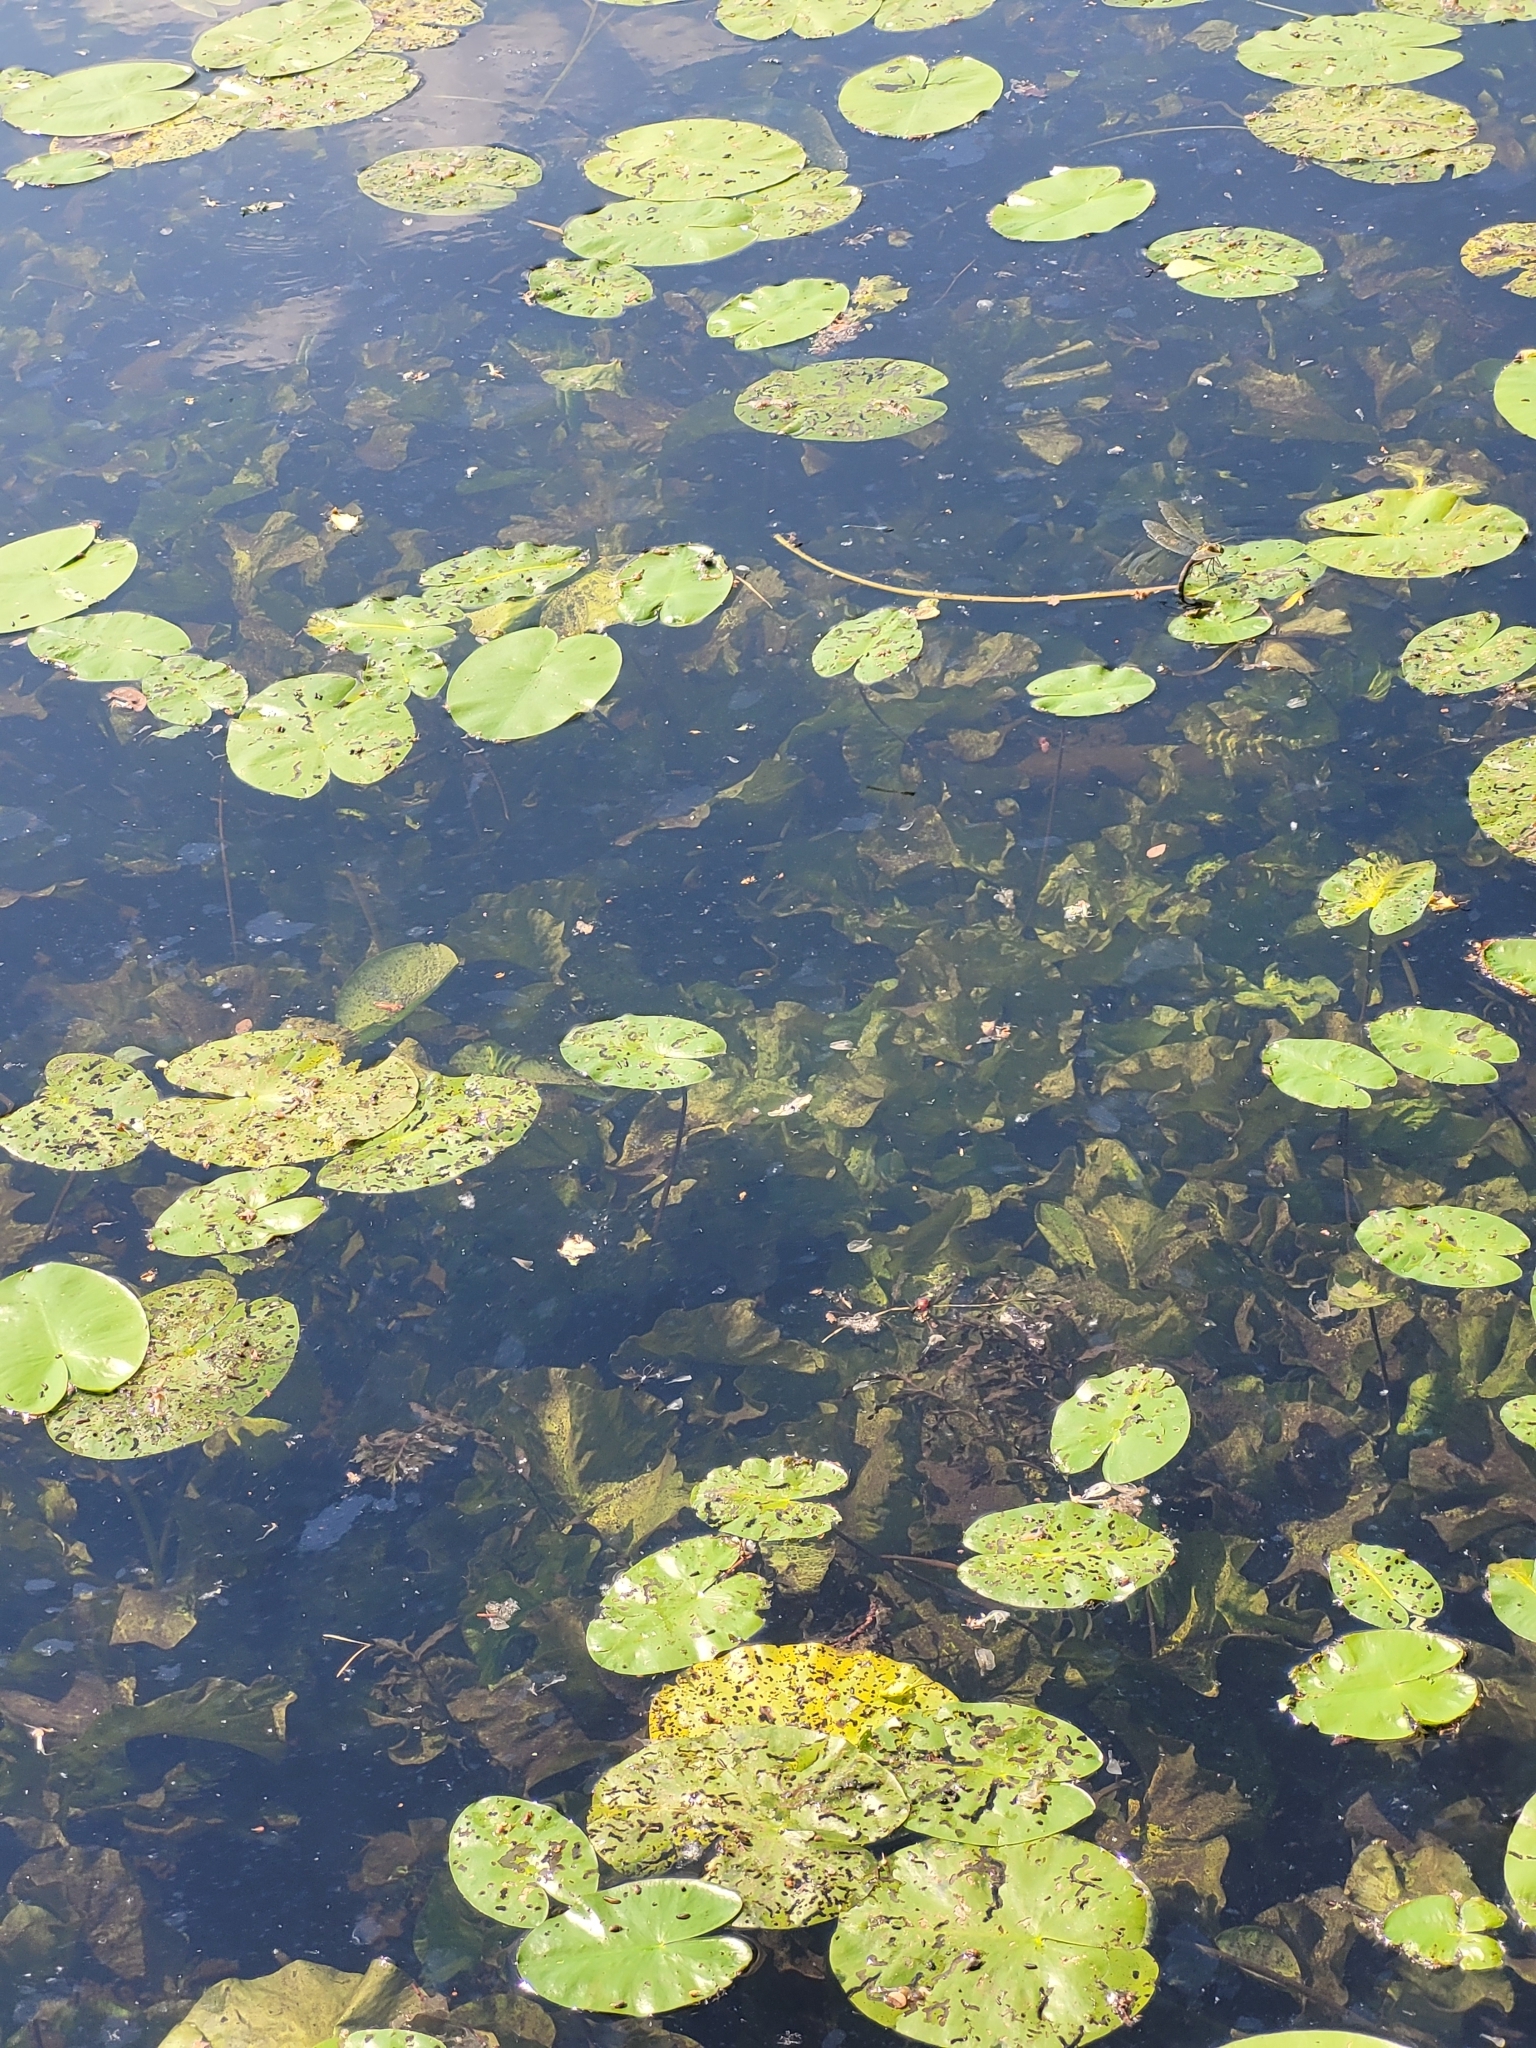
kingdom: Animalia
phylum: Arthropoda
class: Insecta
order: Odonata
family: Aeshnidae
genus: Anax
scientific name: Anax imperator
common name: Emperor dragonfly
